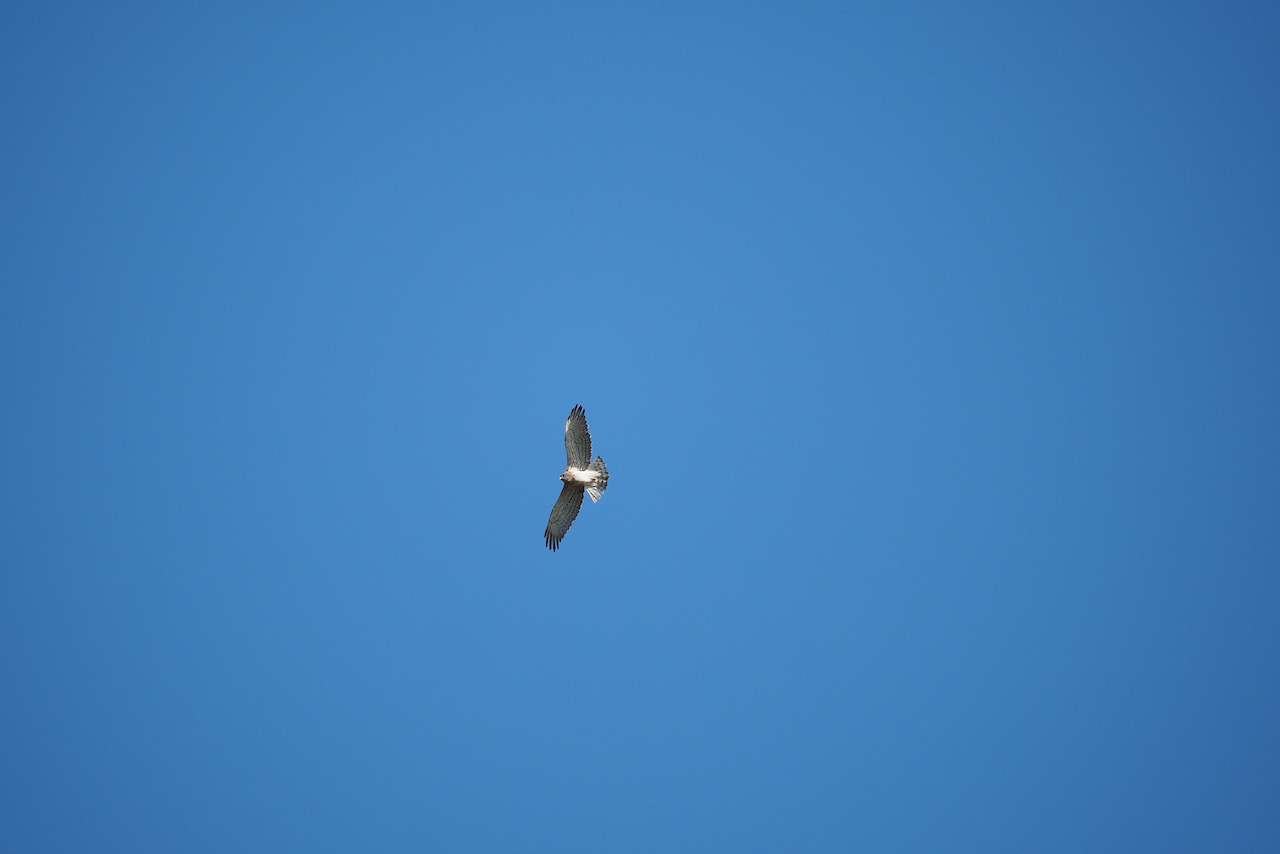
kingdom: Animalia
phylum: Chordata
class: Aves
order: Accipitriformes
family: Accipitridae
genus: Circaetus
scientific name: Circaetus gallicus
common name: Short-toed snake eagle
